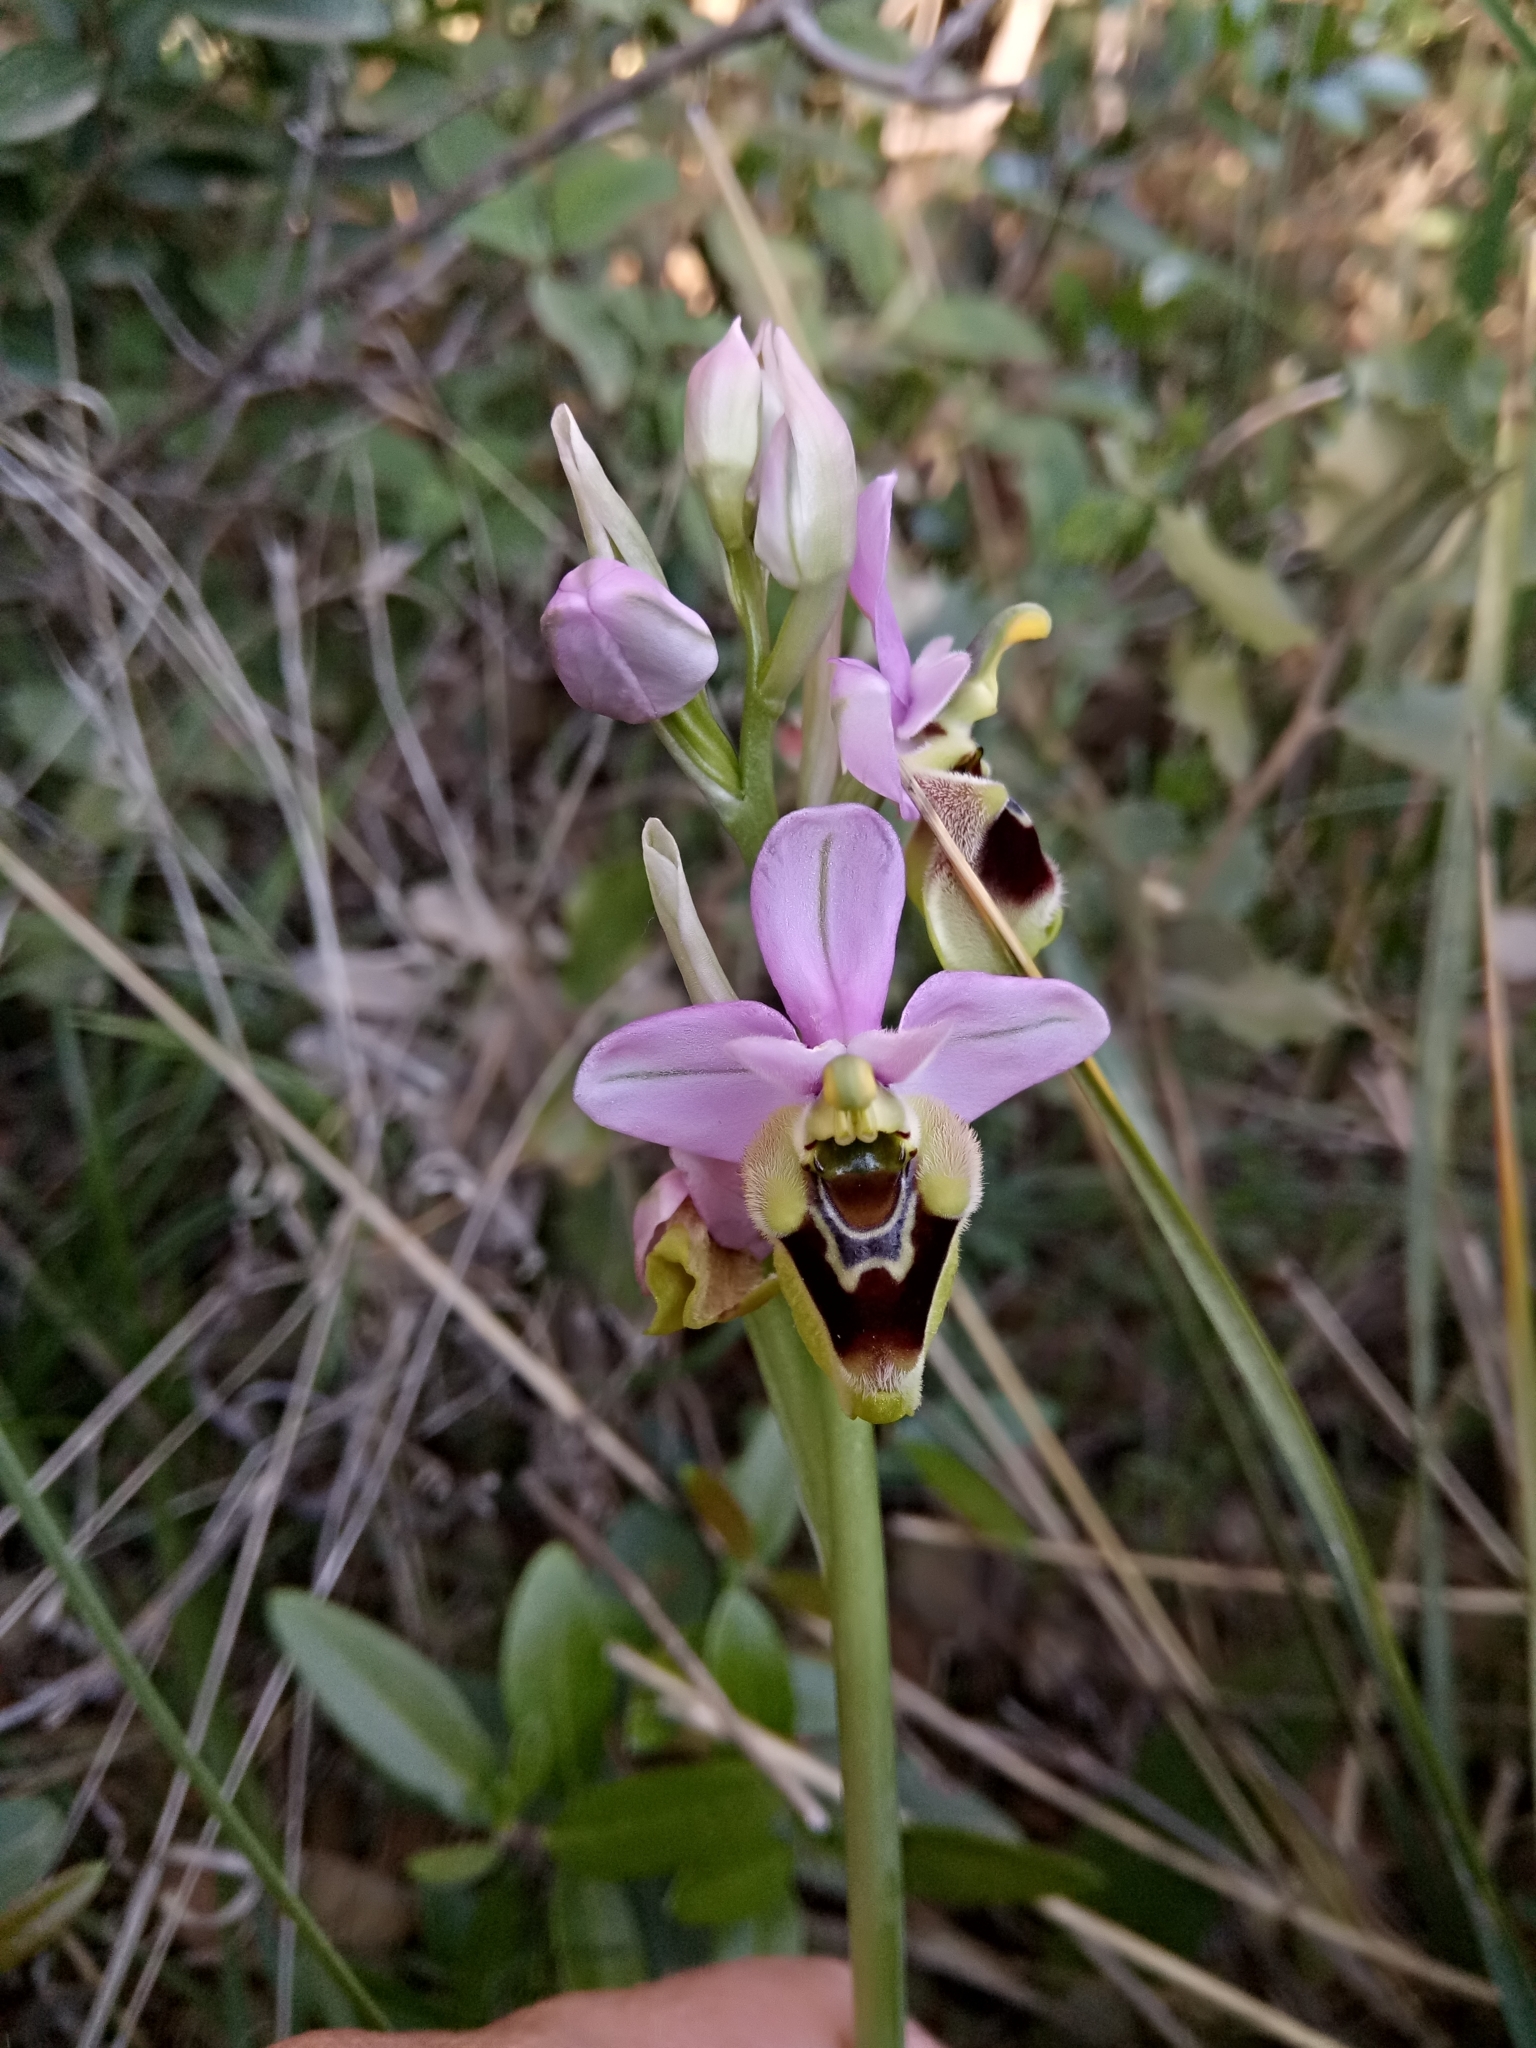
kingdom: Plantae
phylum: Tracheophyta
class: Liliopsida
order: Asparagales
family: Orchidaceae
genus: Ophrys
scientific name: Ophrys tenthredinifera
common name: Sawfly orchid
